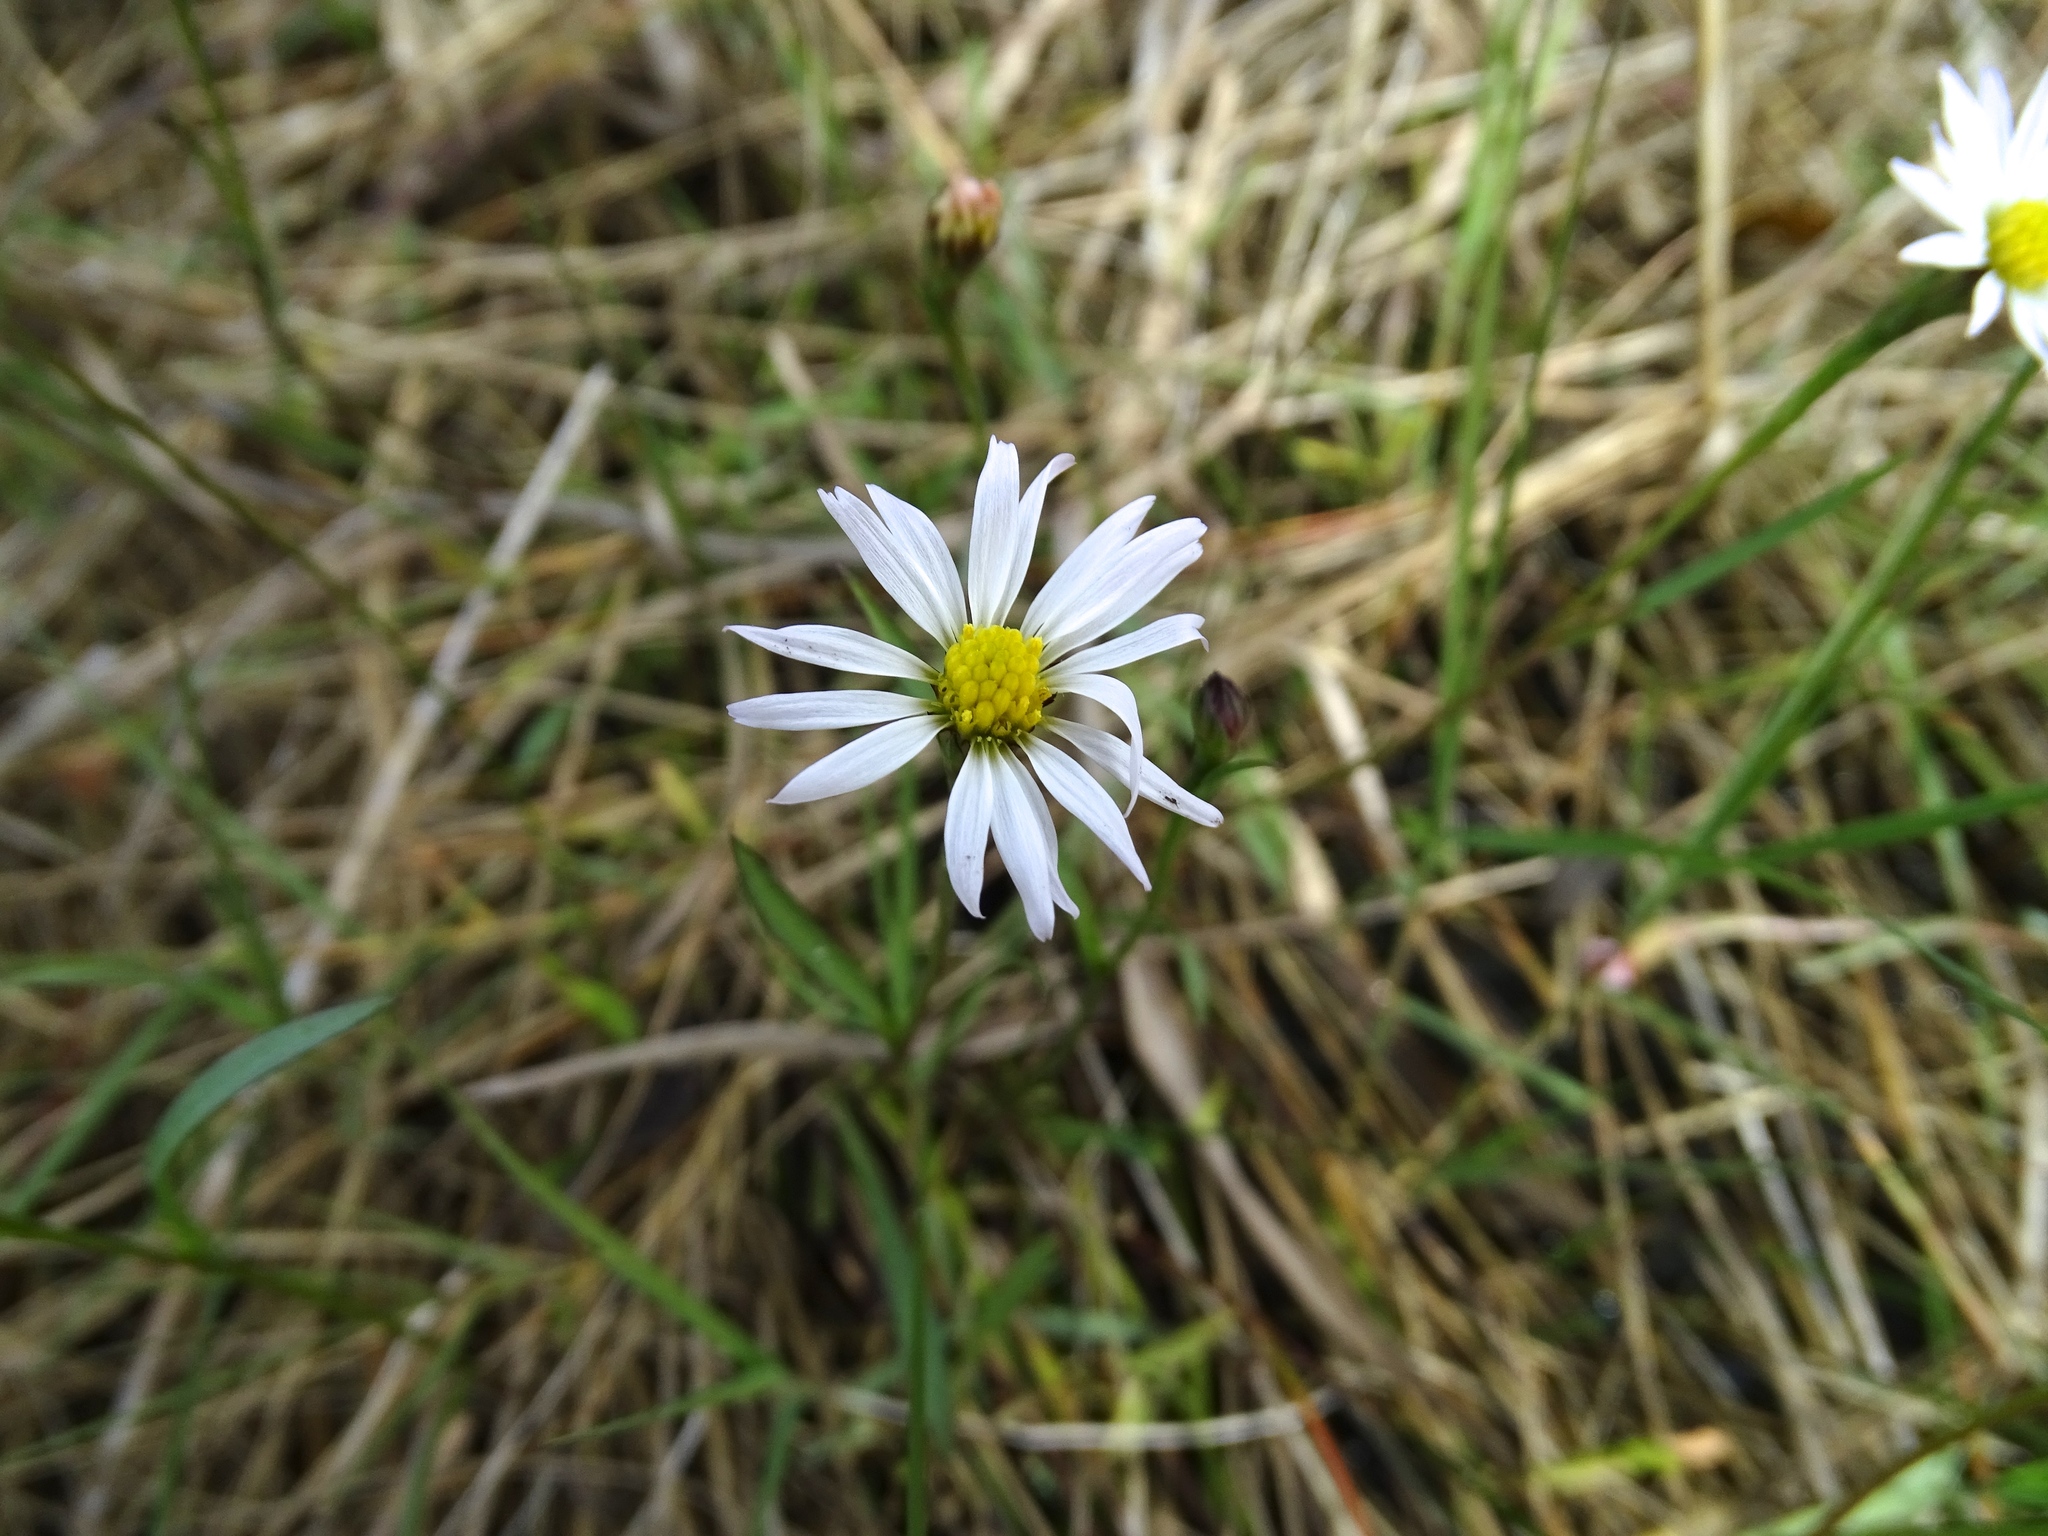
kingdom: Plantae
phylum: Tracheophyta
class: Magnoliopsida
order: Asterales
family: Asteraceae
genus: Symphyotrichum
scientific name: Symphyotrichum tenuifolium
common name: Perennial salt-marsh aster
